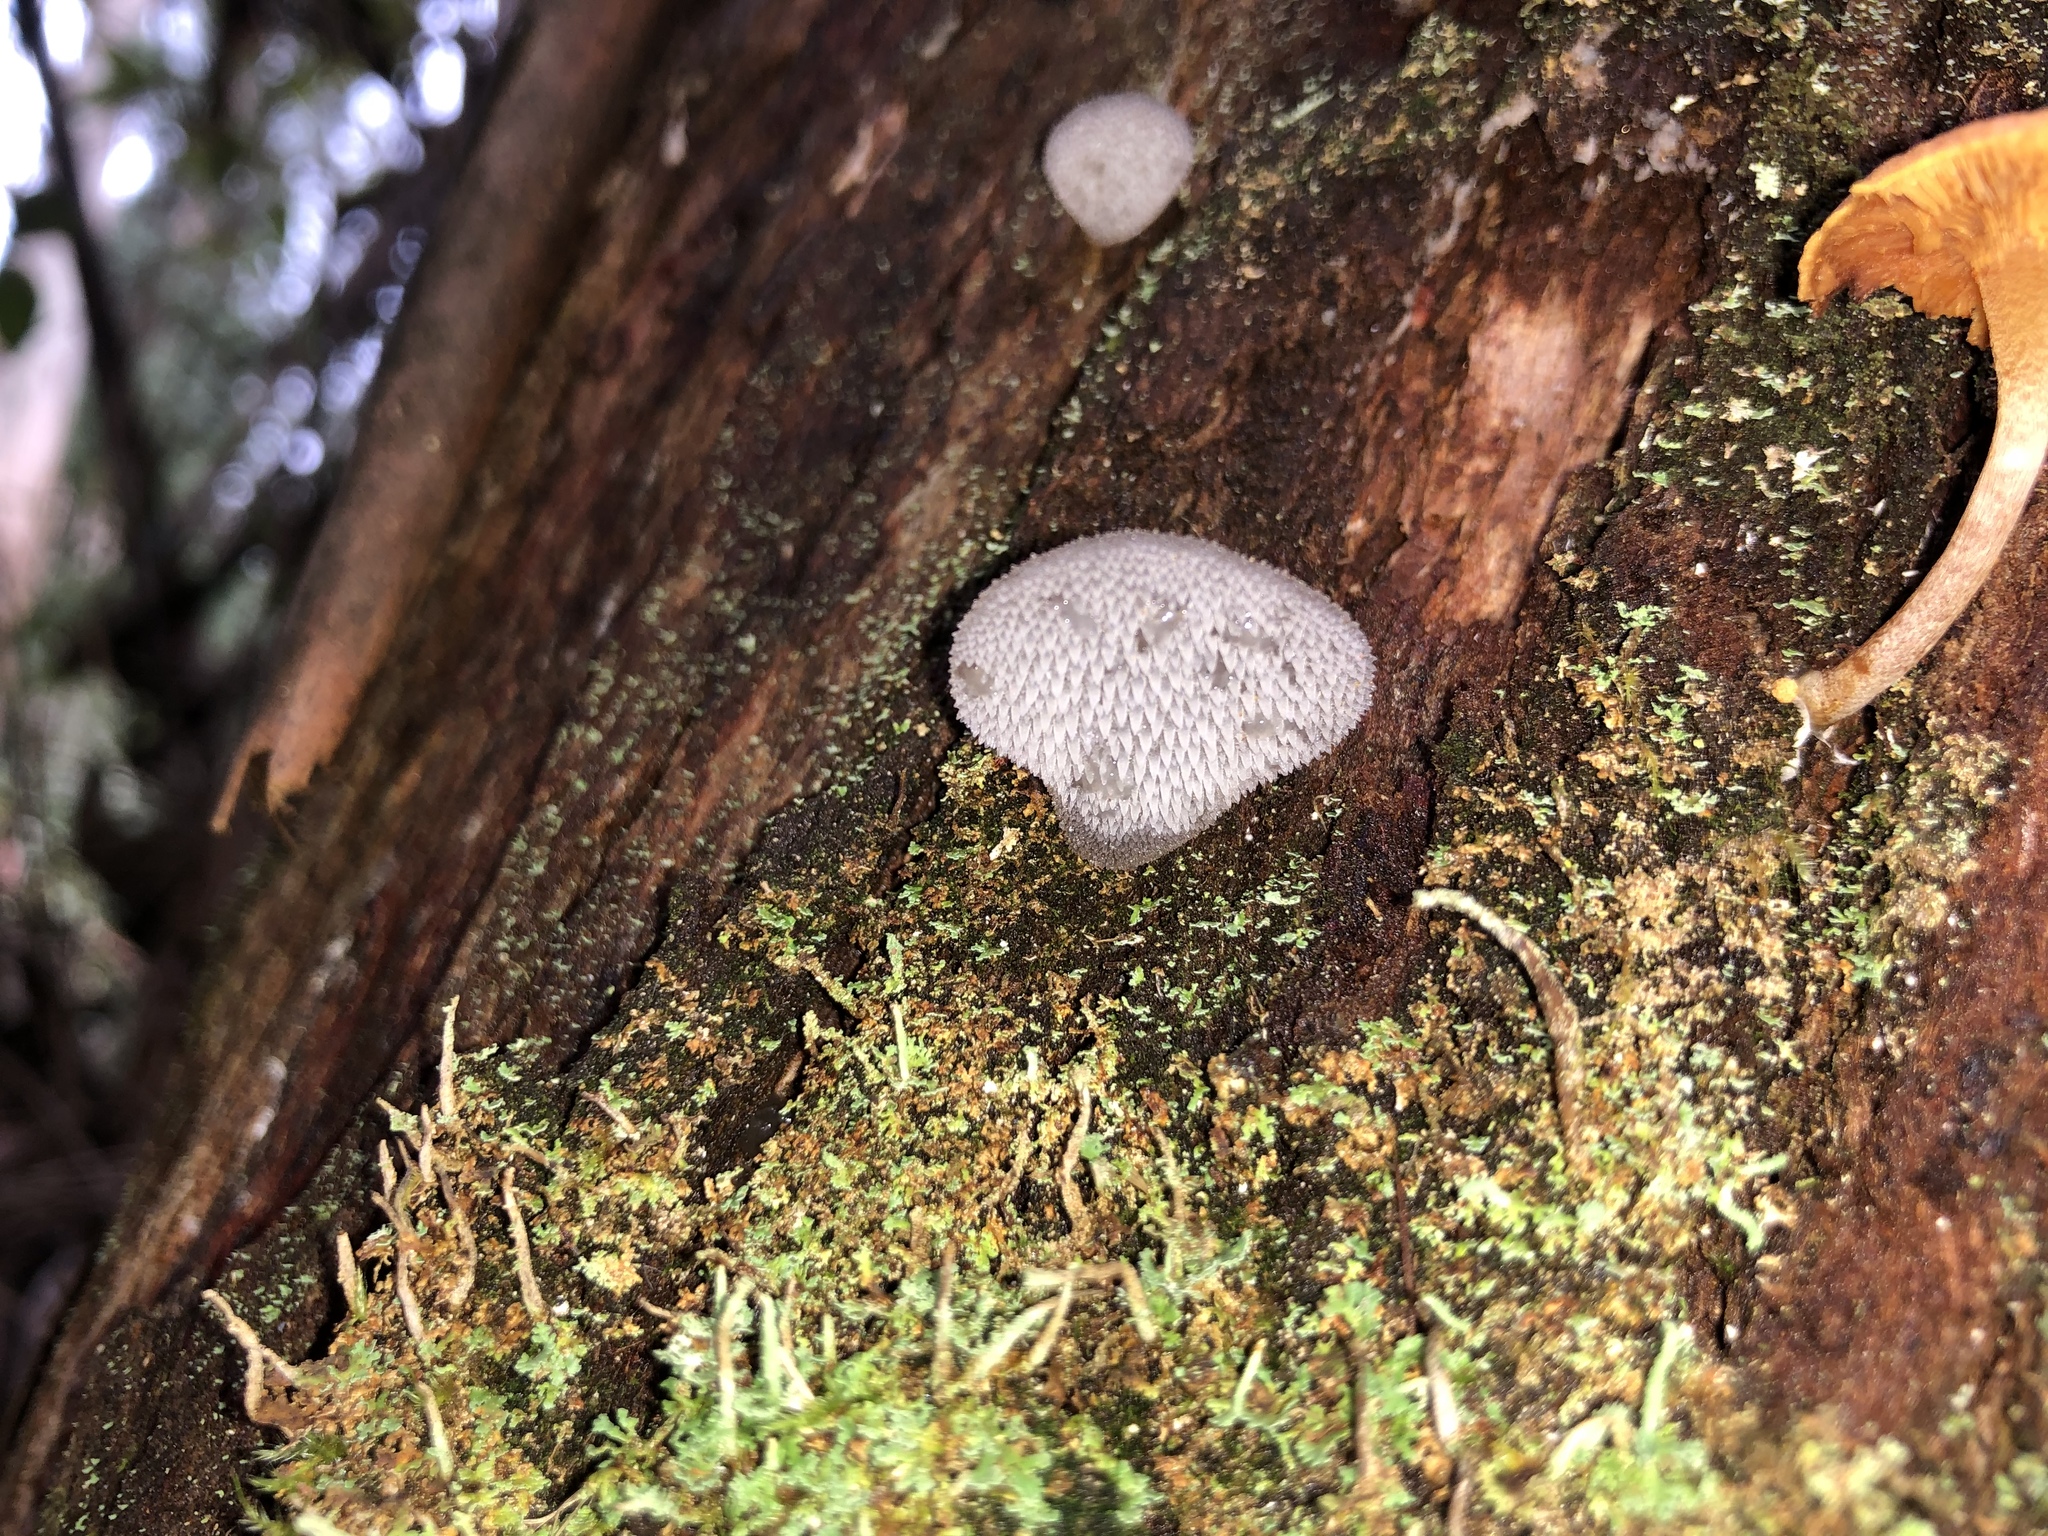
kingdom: Fungi
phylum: Basidiomycota
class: Agaricomycetes
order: Auriculariales
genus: Pseudohydnum
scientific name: Pseudohydnum gelatinosum
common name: Jelly tongue
